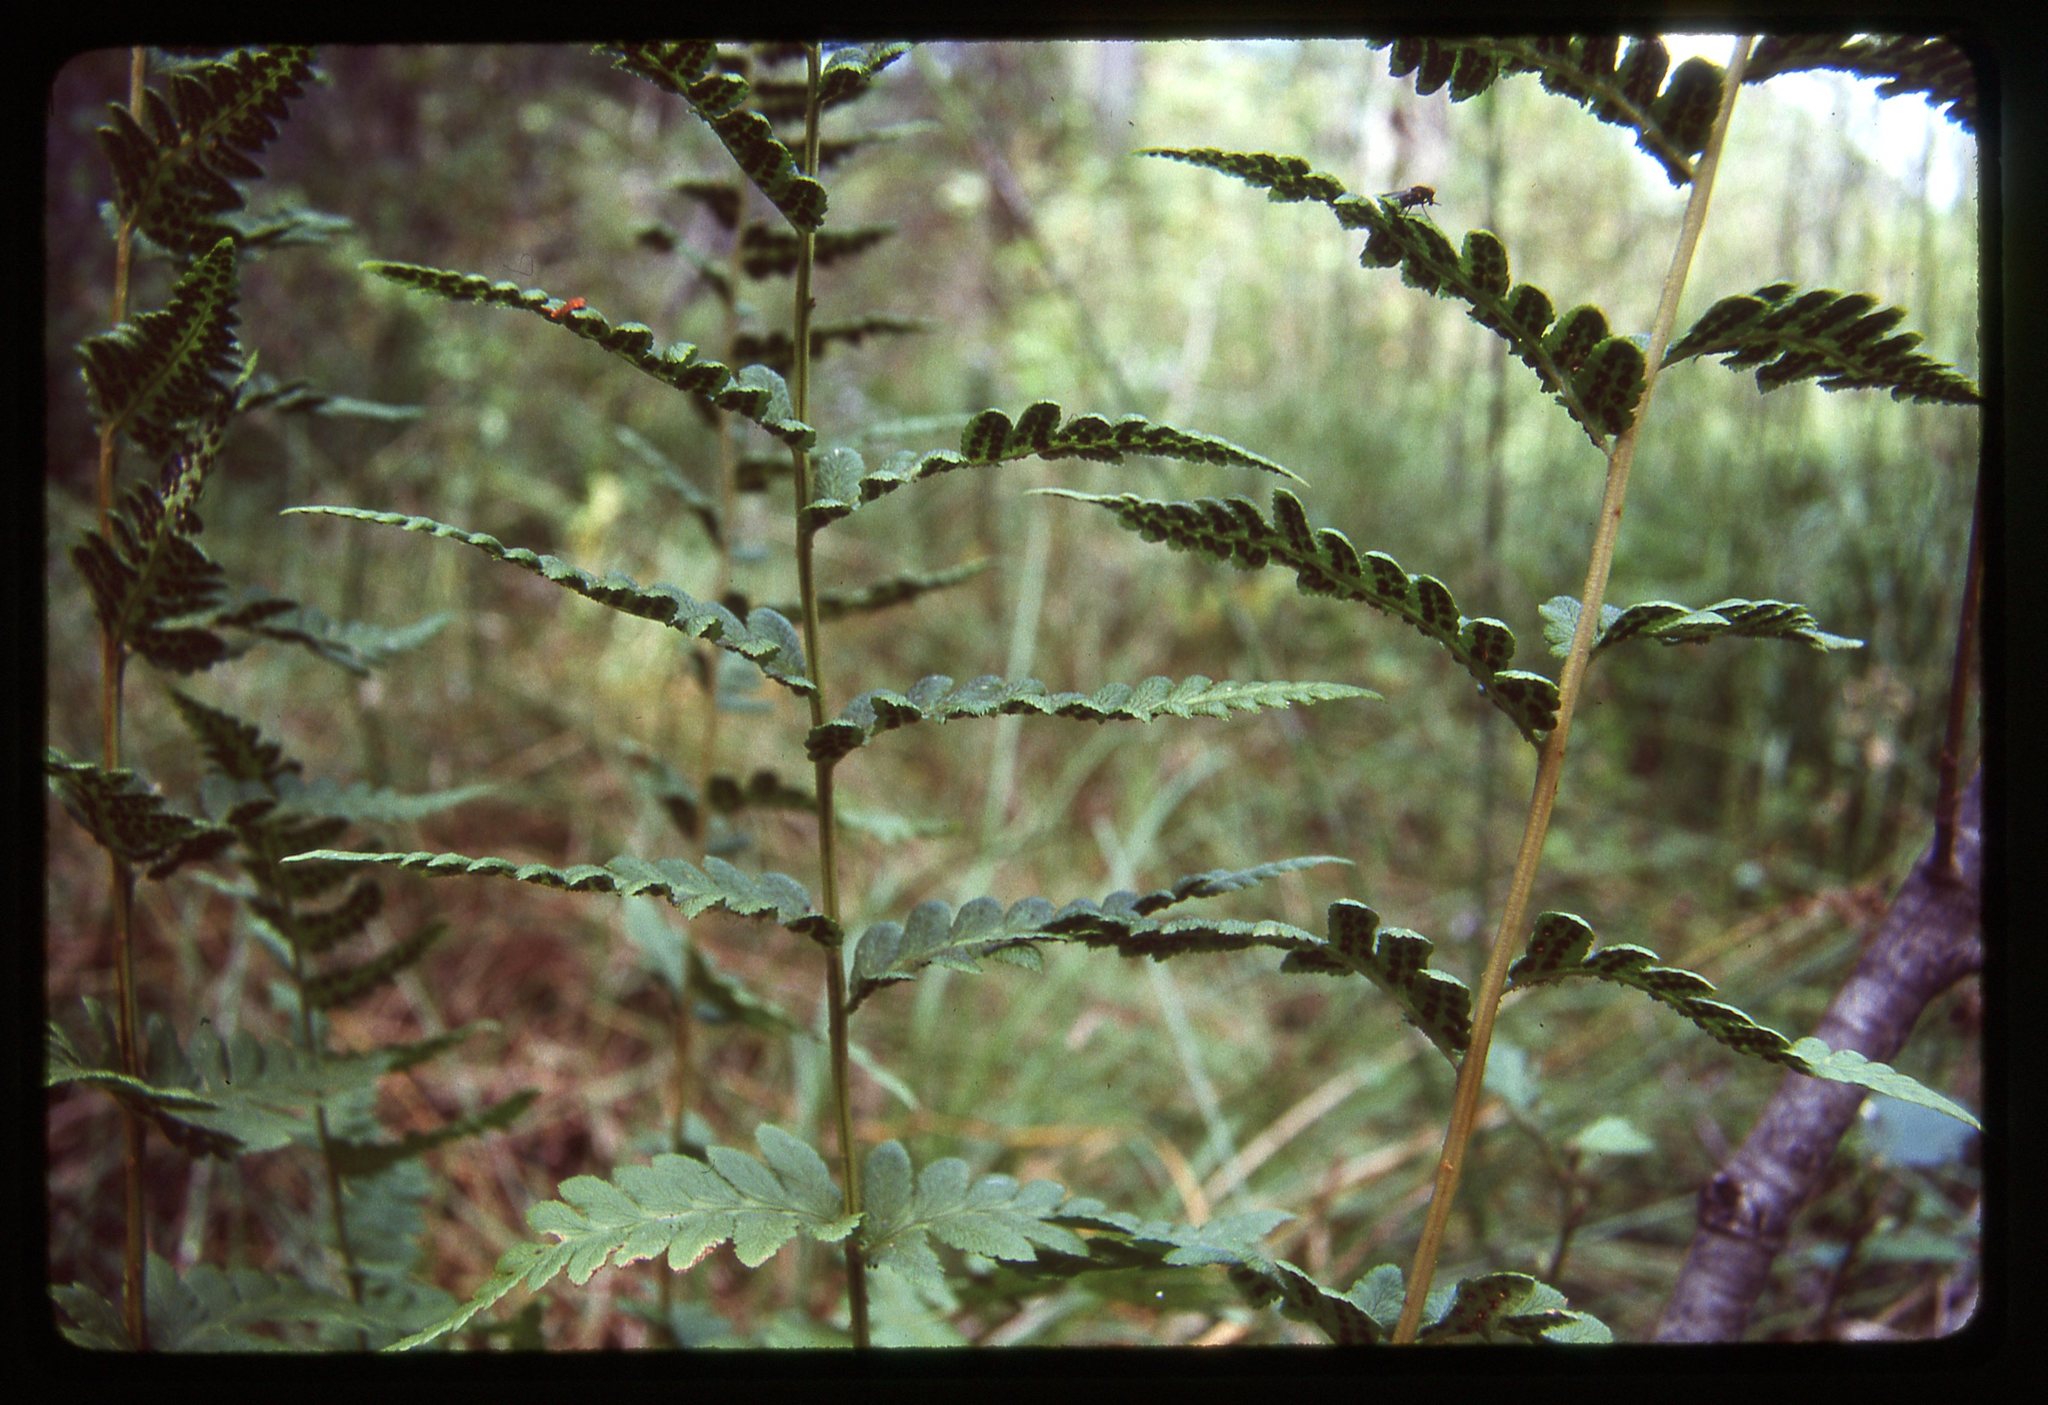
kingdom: Plantae
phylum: Tracheophyta
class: Polypodiopsida
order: Polypodiales
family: Dryopteridaceae
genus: Dryopteris
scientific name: Dryopteris cristata
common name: Crested wood fern
